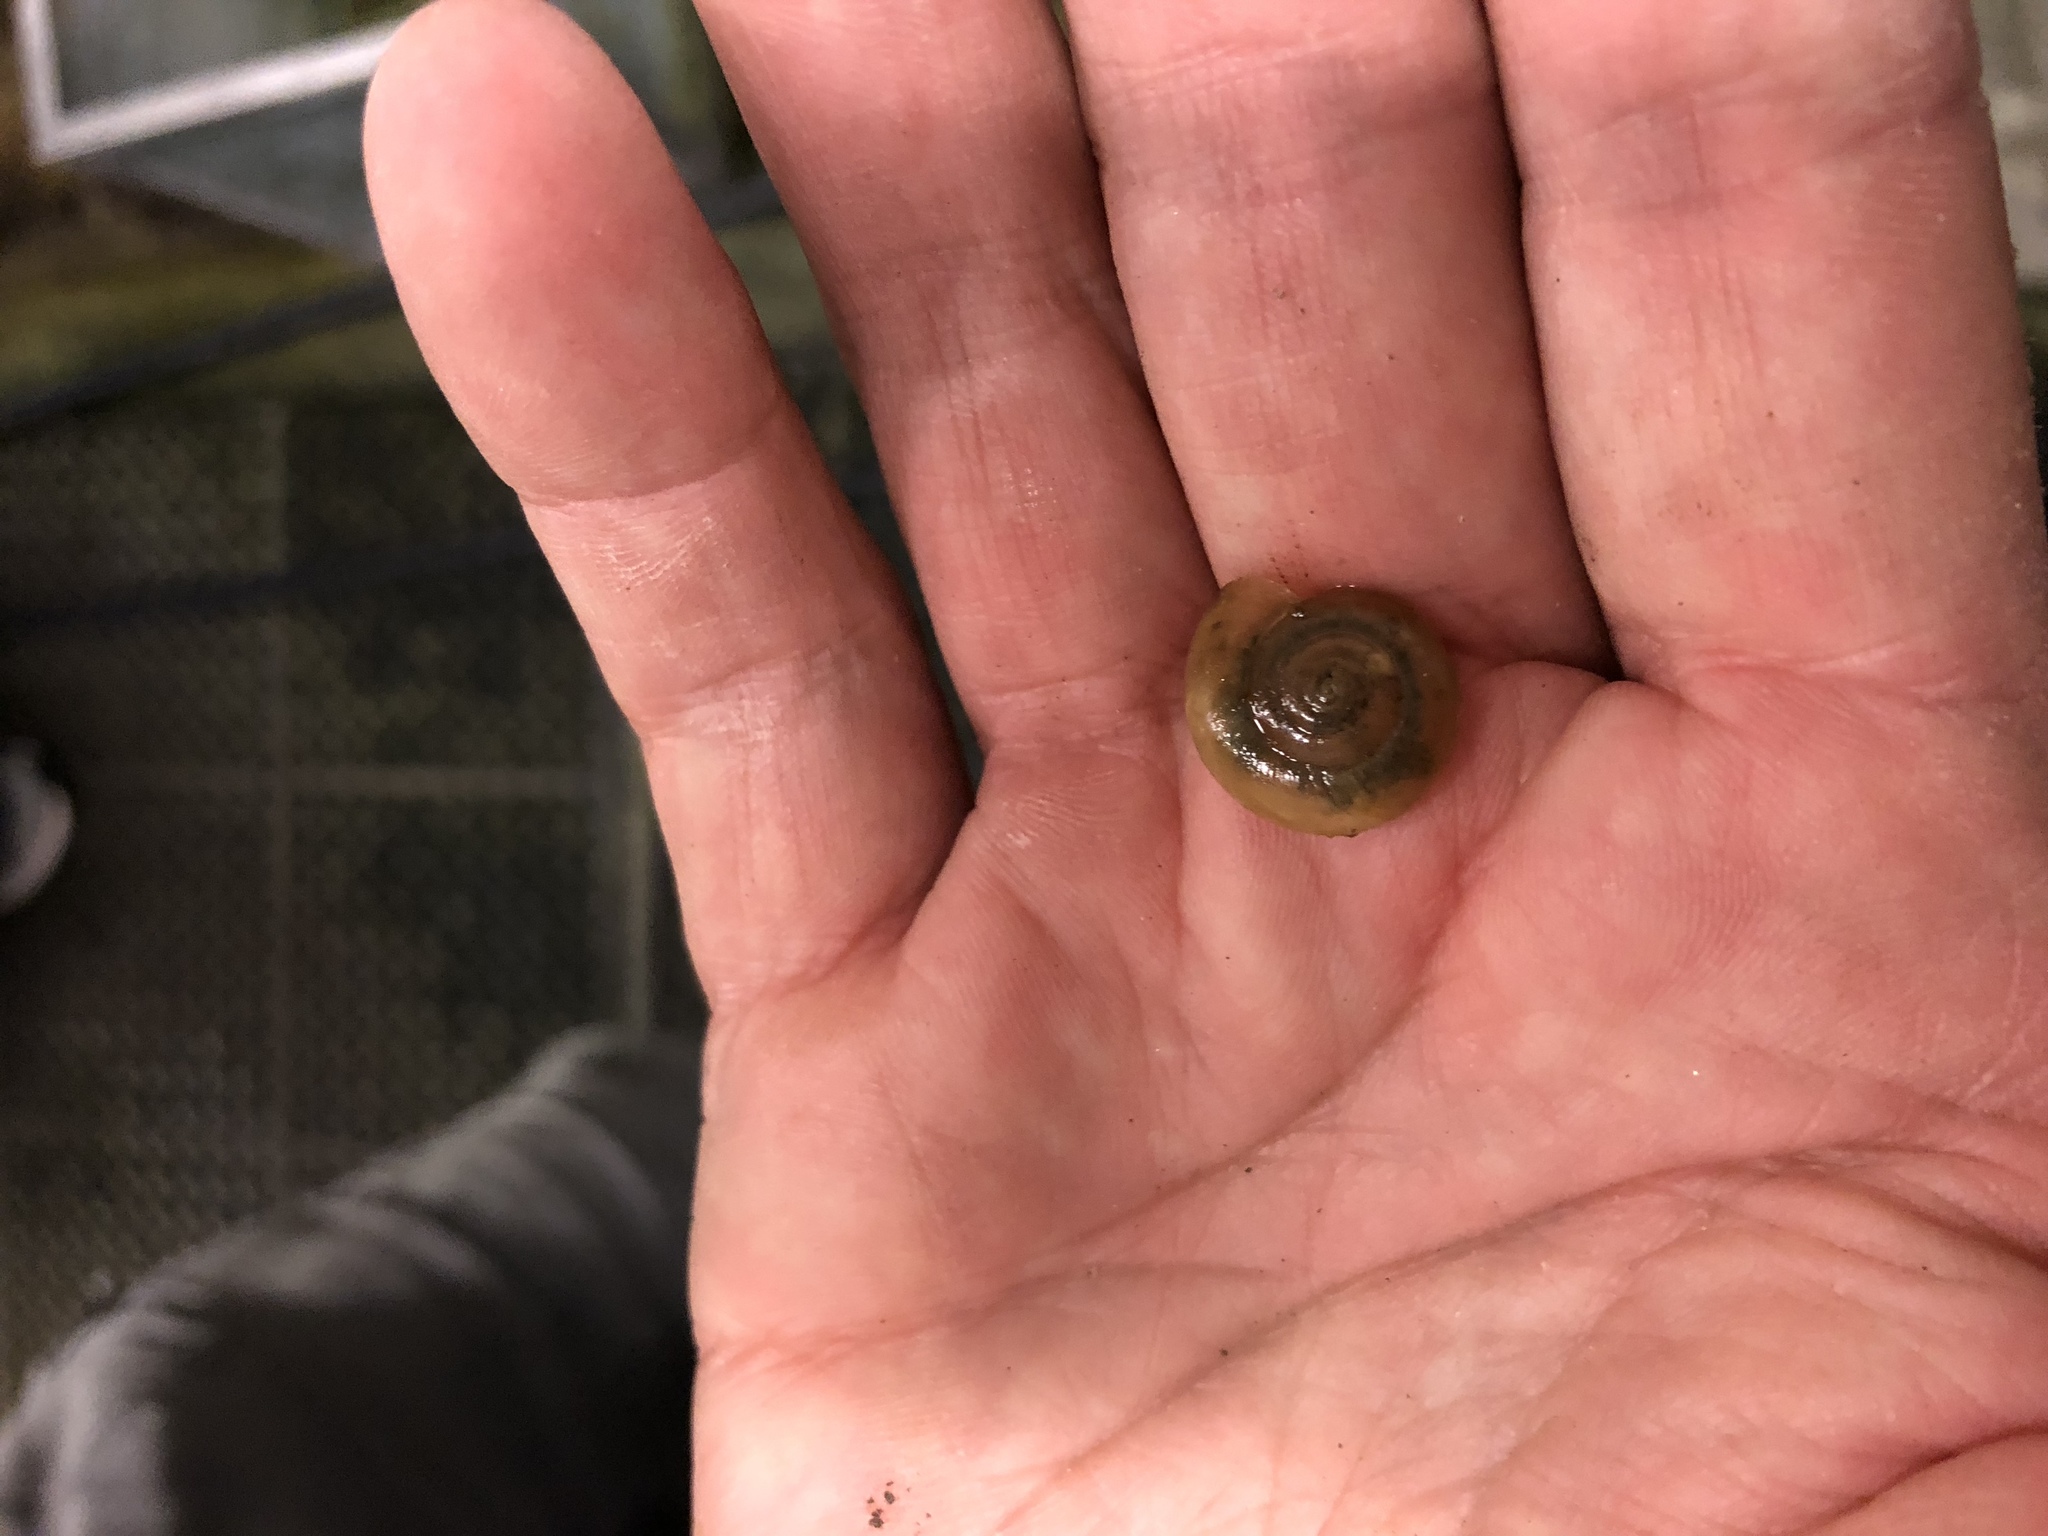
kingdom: Animalia
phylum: Mollusca
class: Gastropoda
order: Stylommatophora
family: Oxychilidae
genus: Oxychilus
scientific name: Oxychilus draparnaudi
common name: Draparnaud's glass snail
